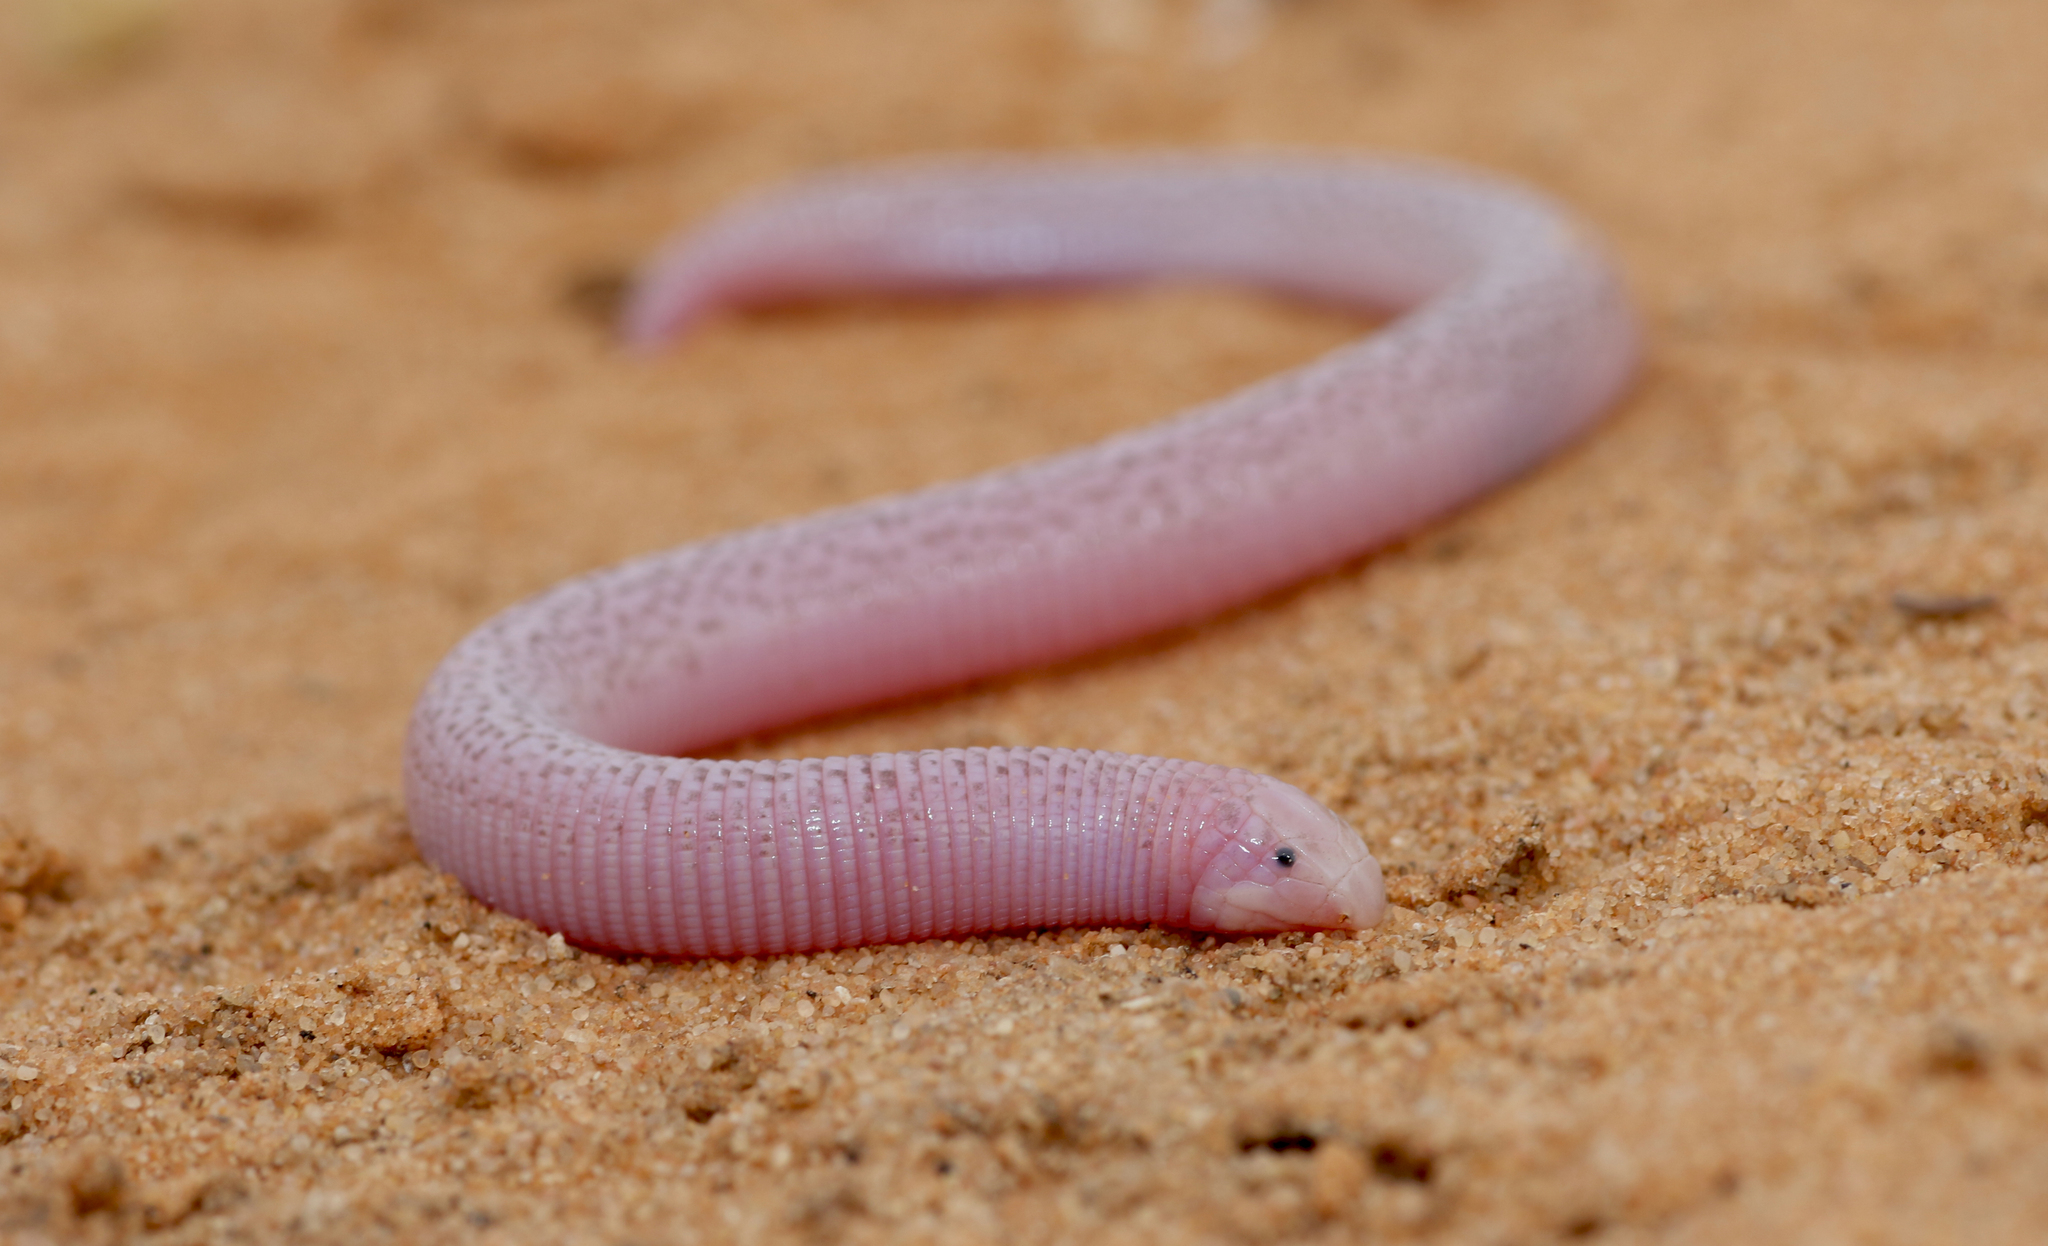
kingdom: Animalia
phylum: Chordata
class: Squamata
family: Trogonophidae
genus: Diplometopon
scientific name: Diplometopon zarudnyi
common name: Zarudnyi's worm lizard
